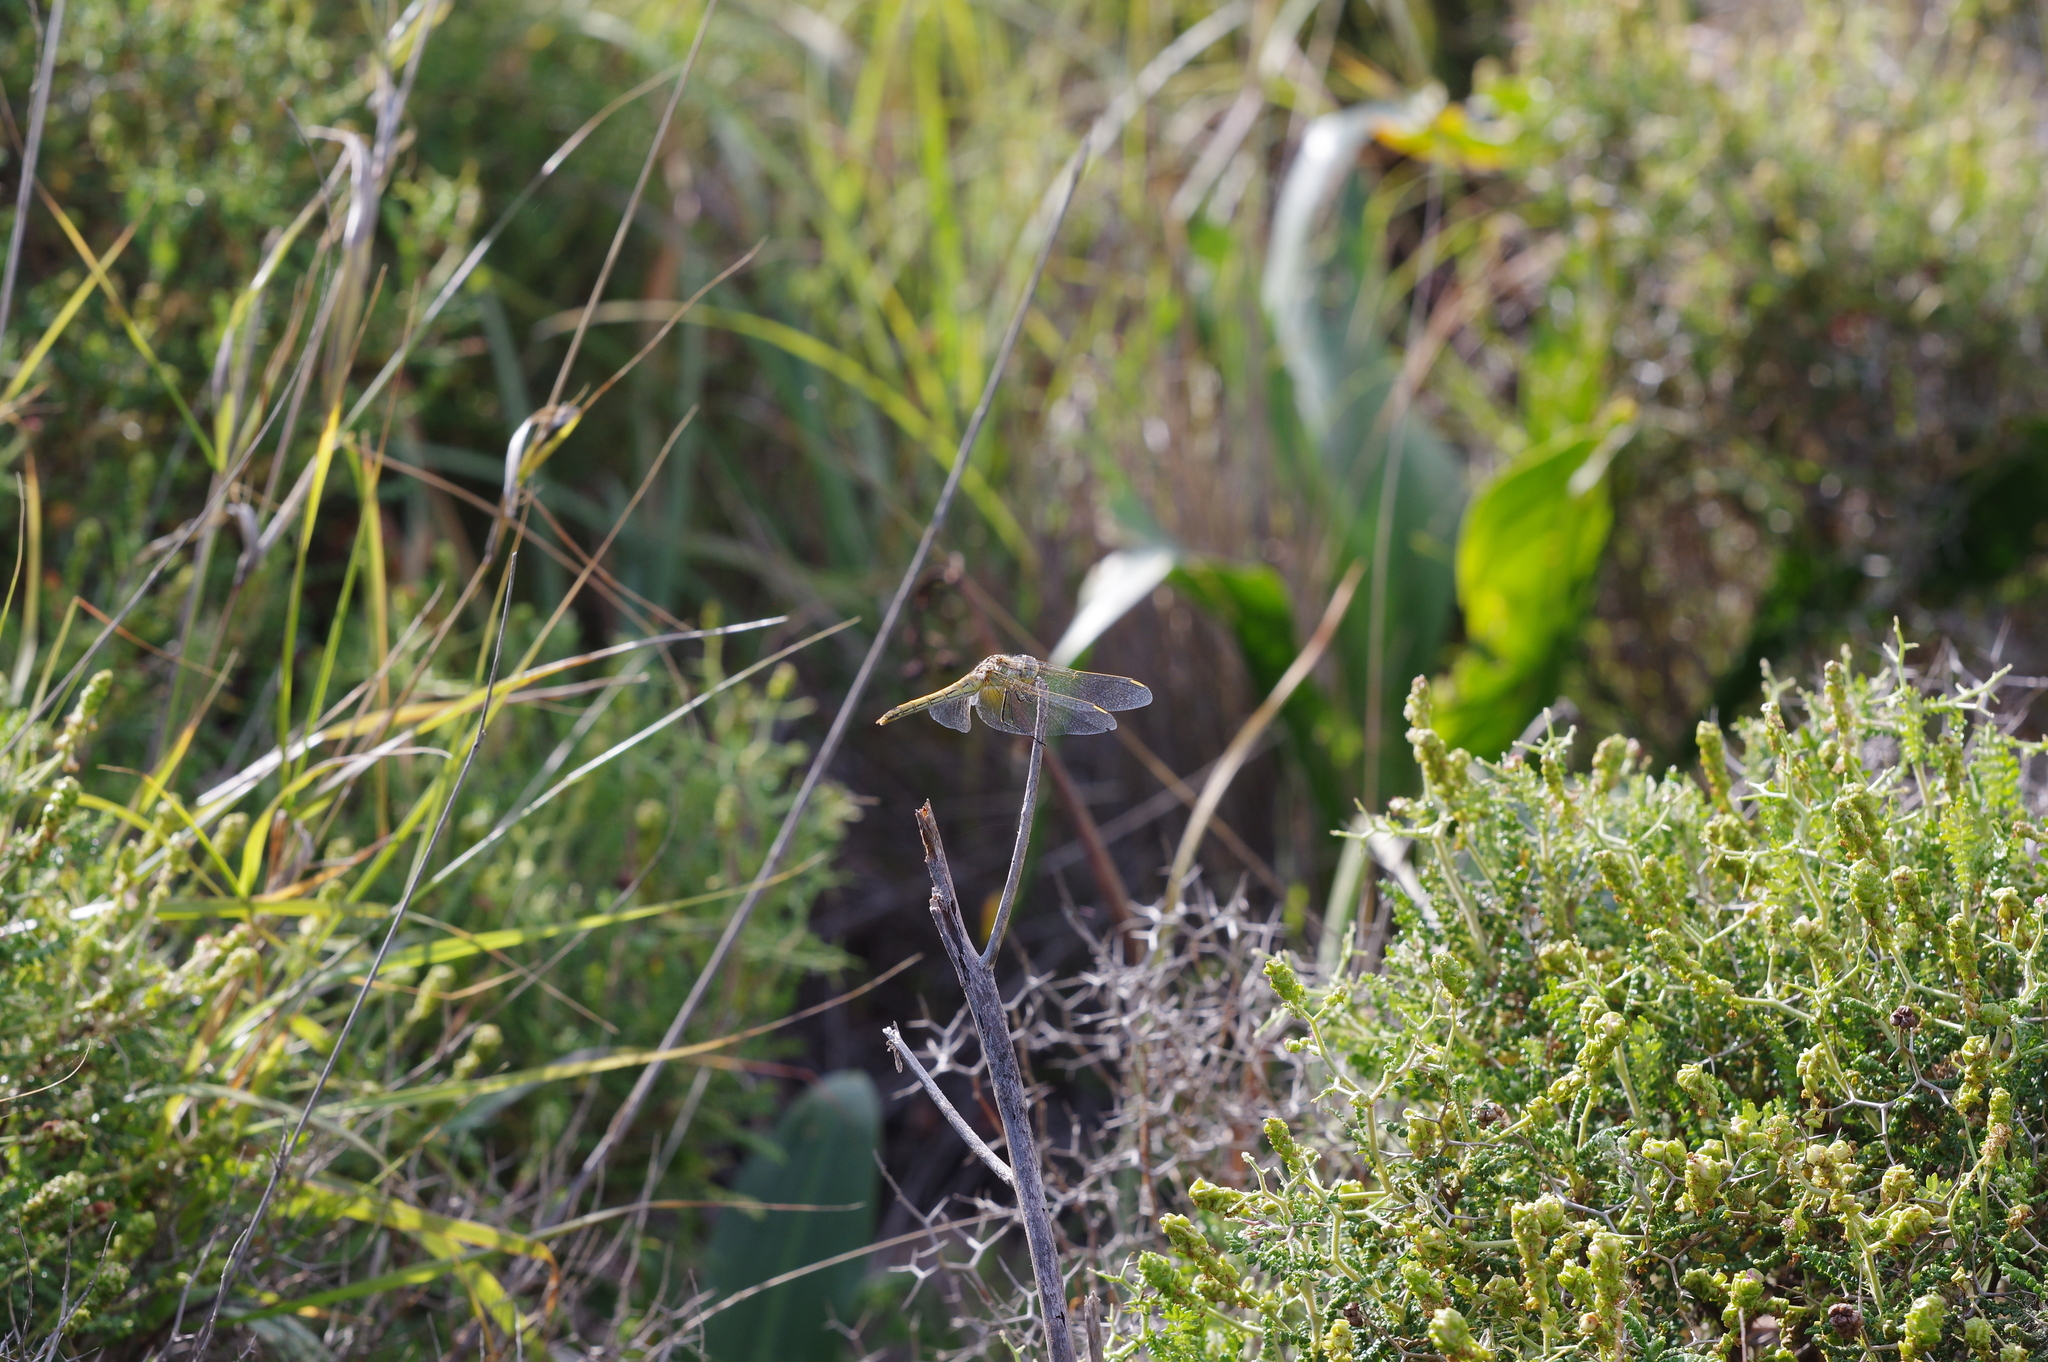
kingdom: Animalia
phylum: Arthropoda
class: Insecta
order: Odonata
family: Libellulidae
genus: Sympetrum
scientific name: Sympetrum fonscolombii
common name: Red-veined darter
